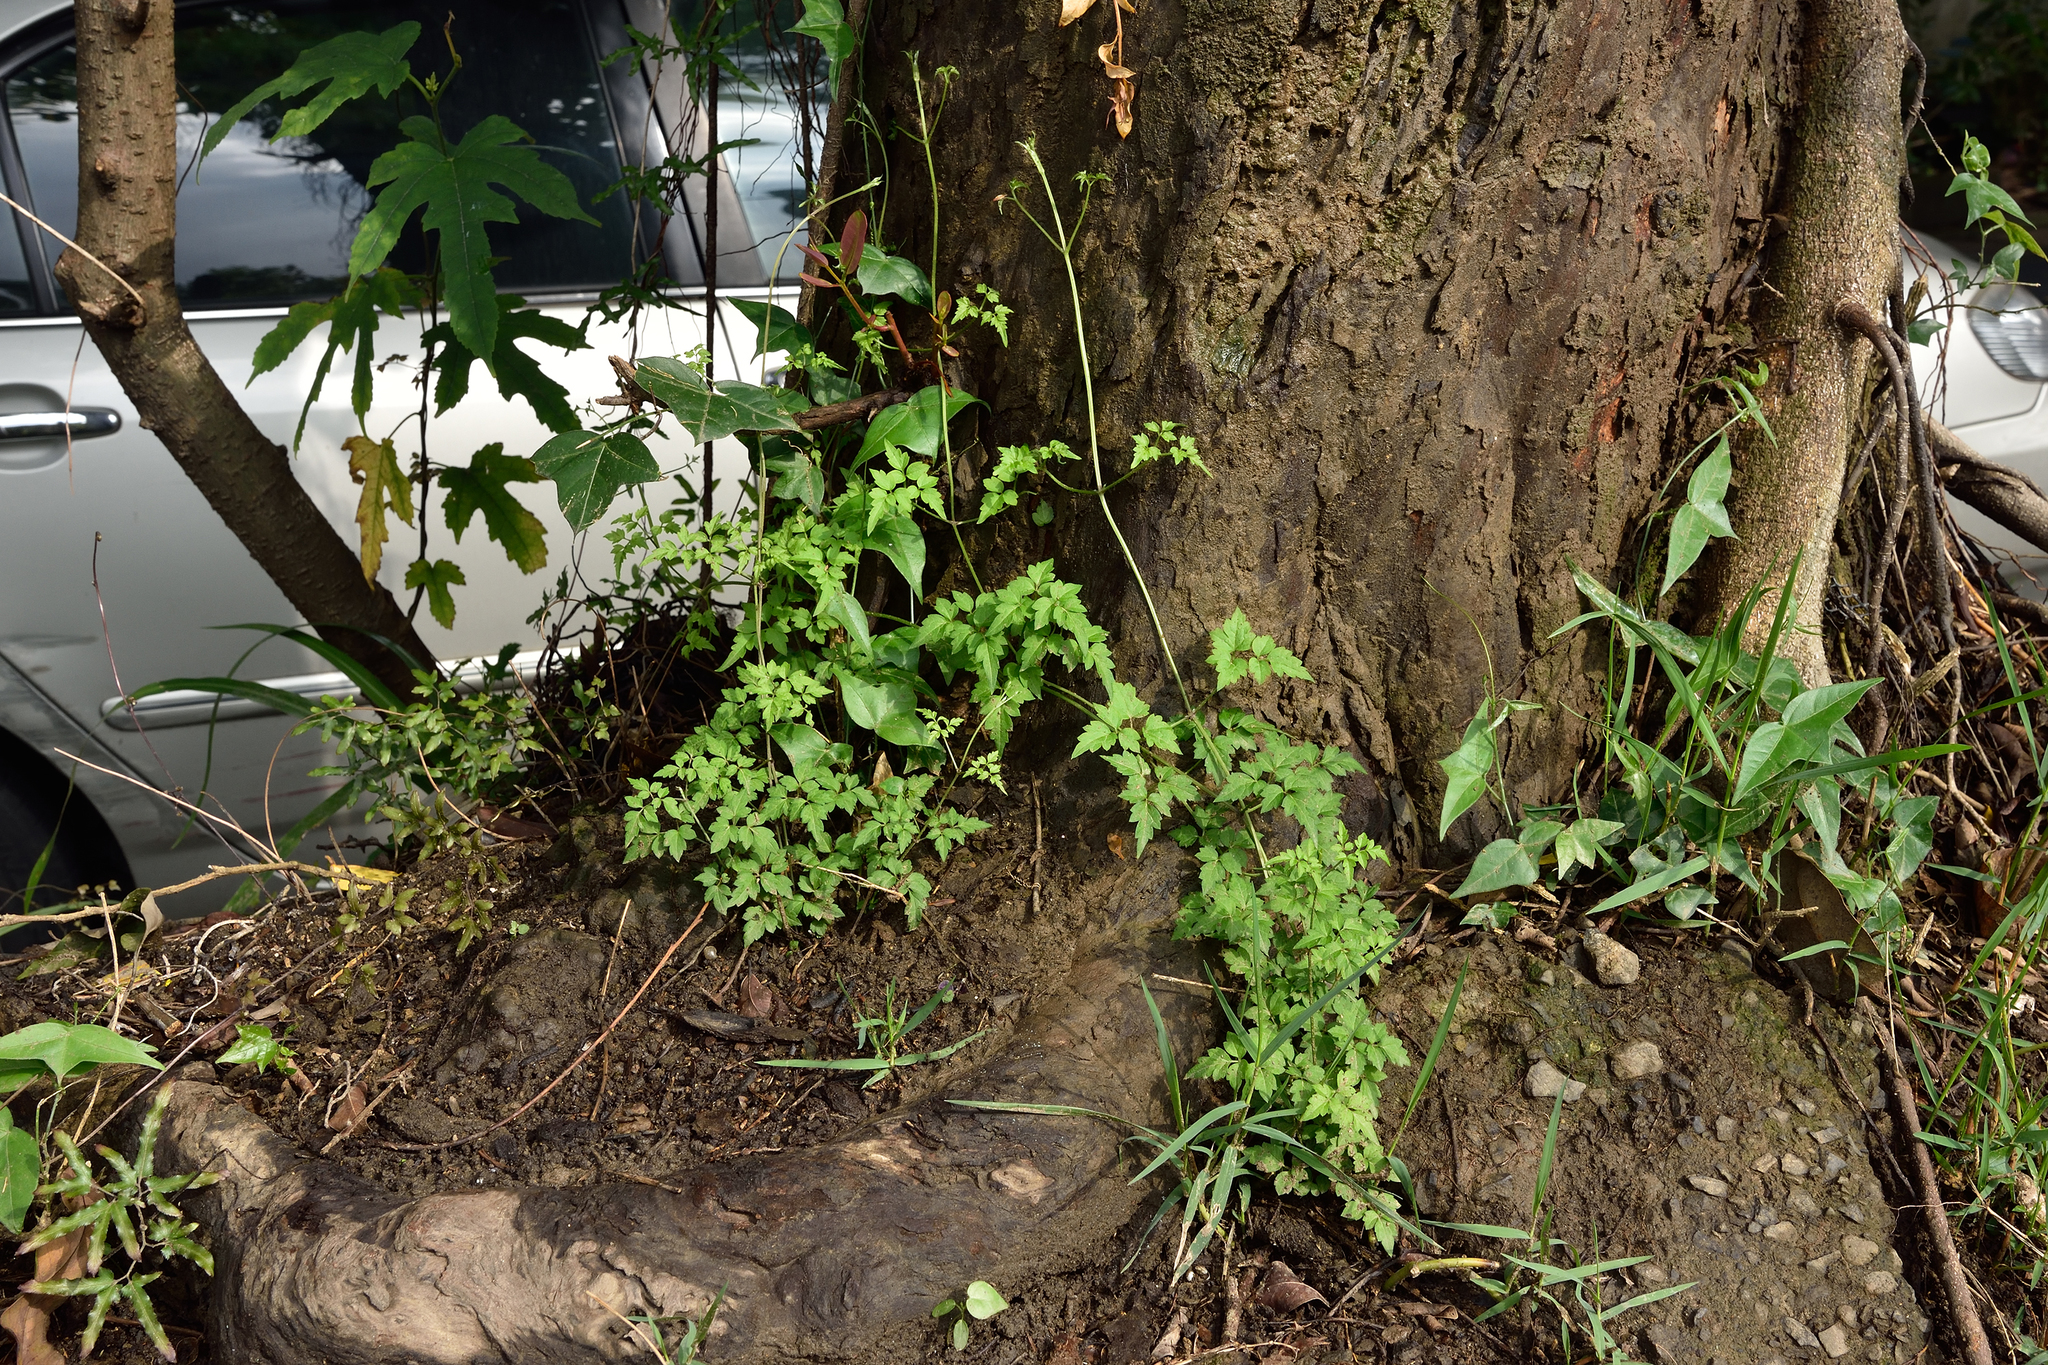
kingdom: Plantae
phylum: Tracheophyta
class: Magnoliopsida
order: Ranunculales
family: Ranunculaceae
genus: Clematis
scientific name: Clematis grata
